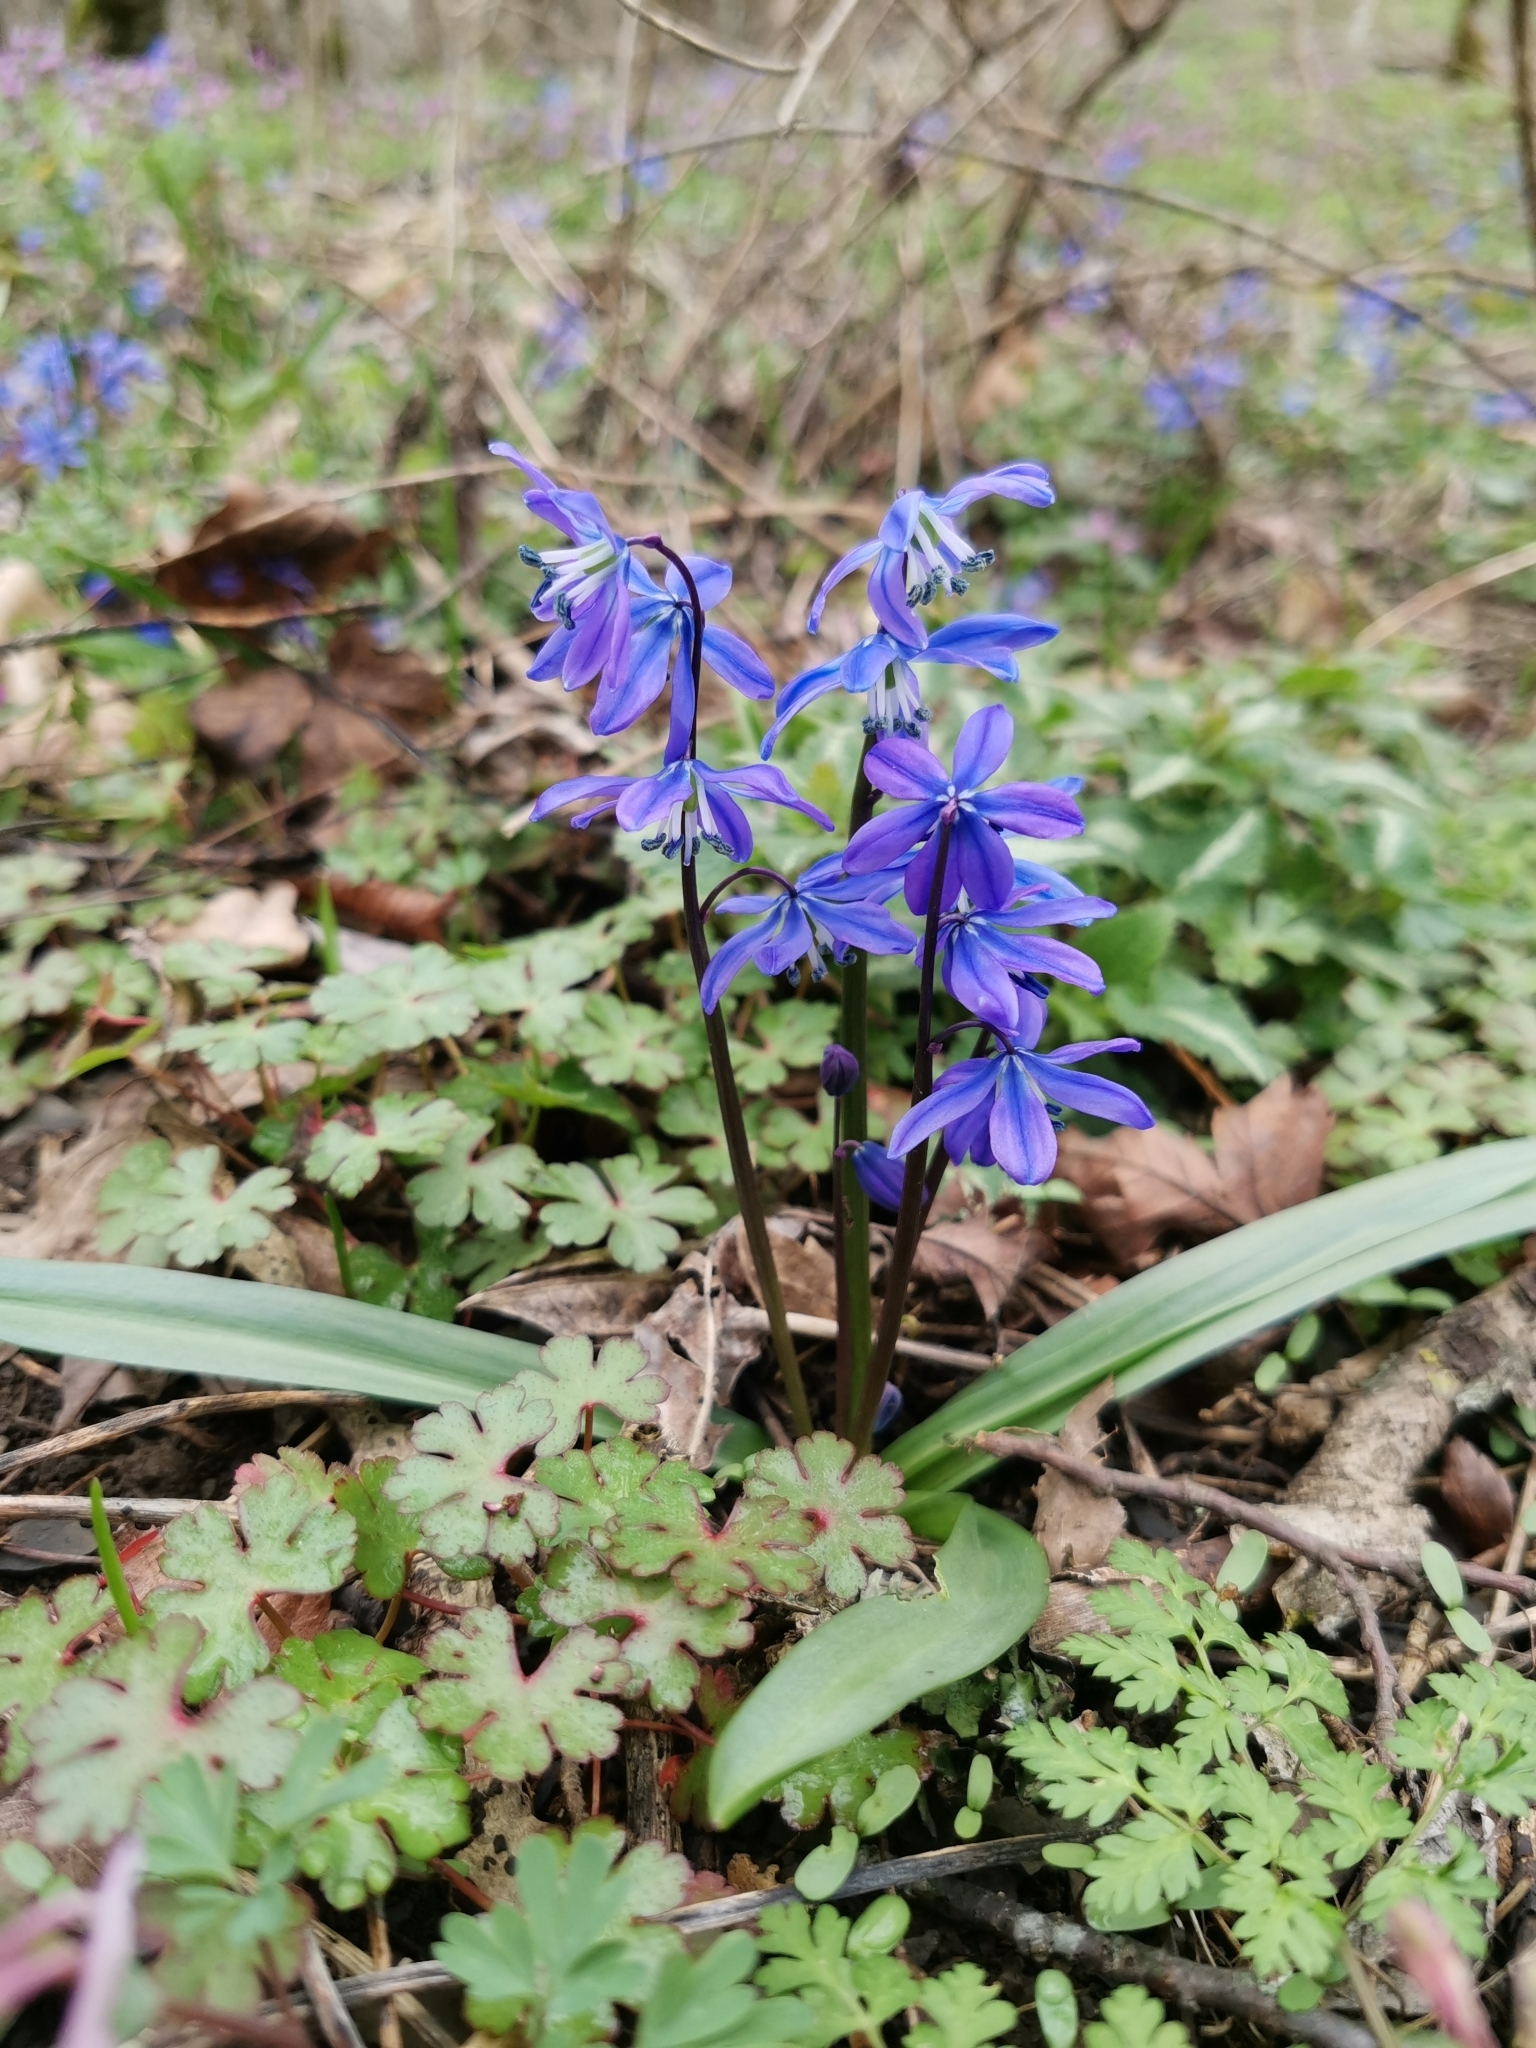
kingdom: Plantae
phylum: Tracheophyta
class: Liliopsida
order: Asparagales
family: Asparagaceae
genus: Scilla
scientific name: Scilla siberica
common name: Siberian squill
